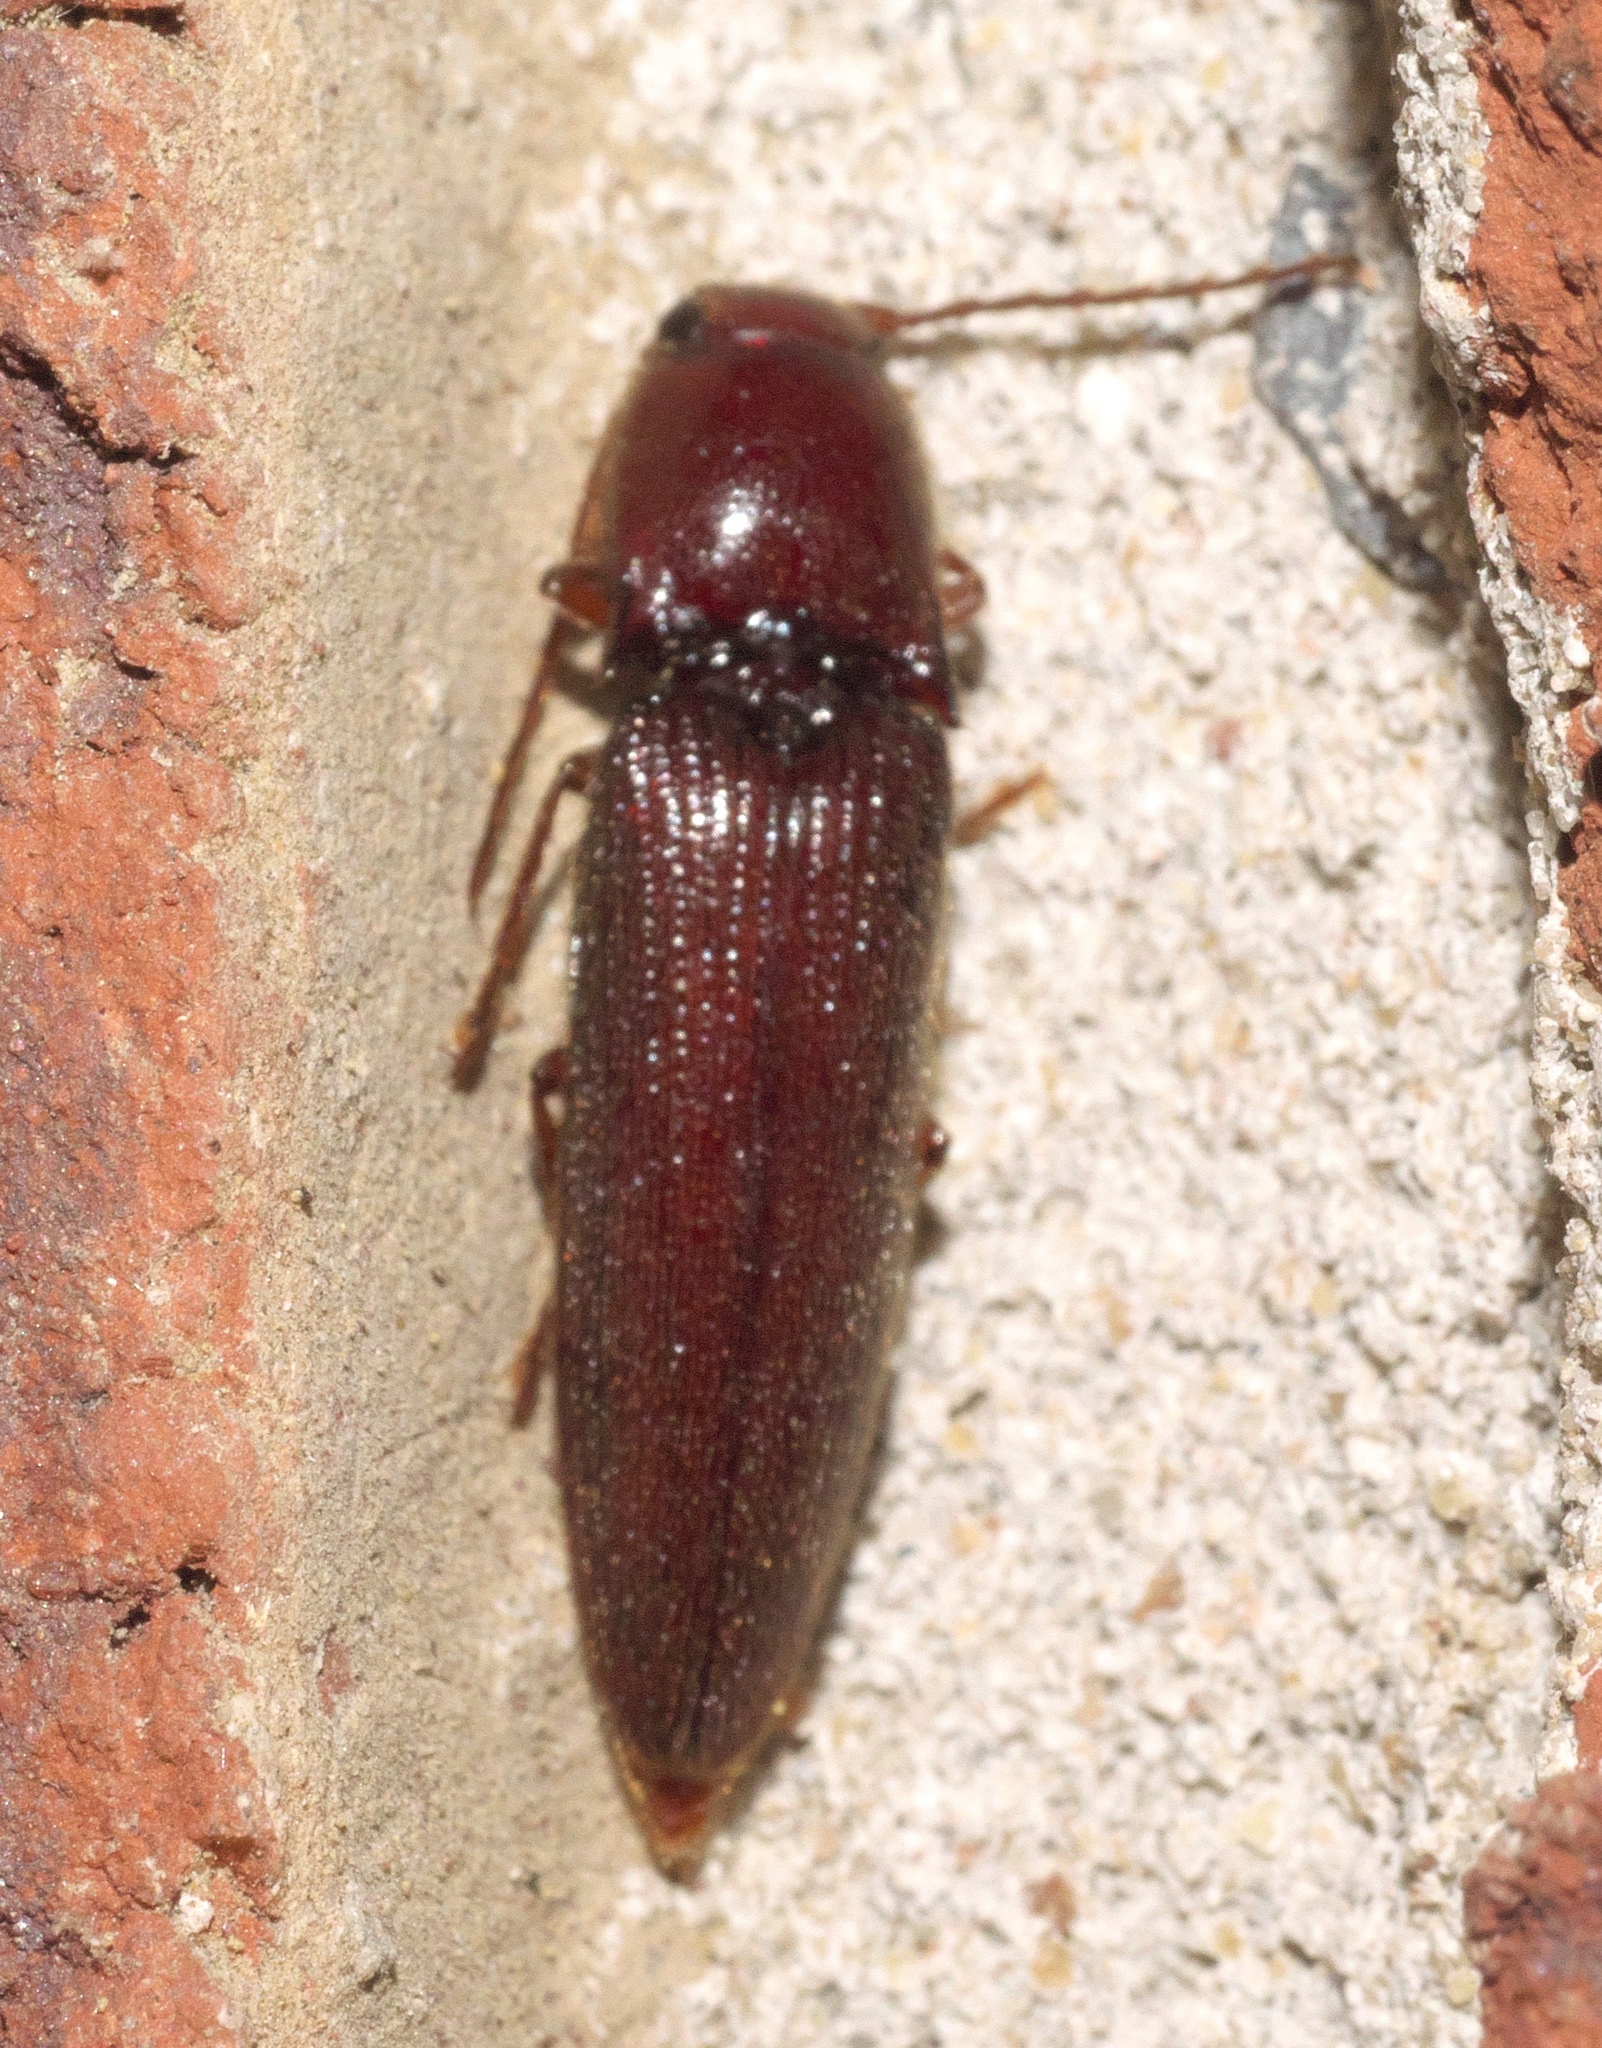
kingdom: Animalia
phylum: Arthropoda
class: Insecta
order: Coleoptera
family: Elateridae
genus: Dicrepidius
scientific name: Dicrepidius palmatus
